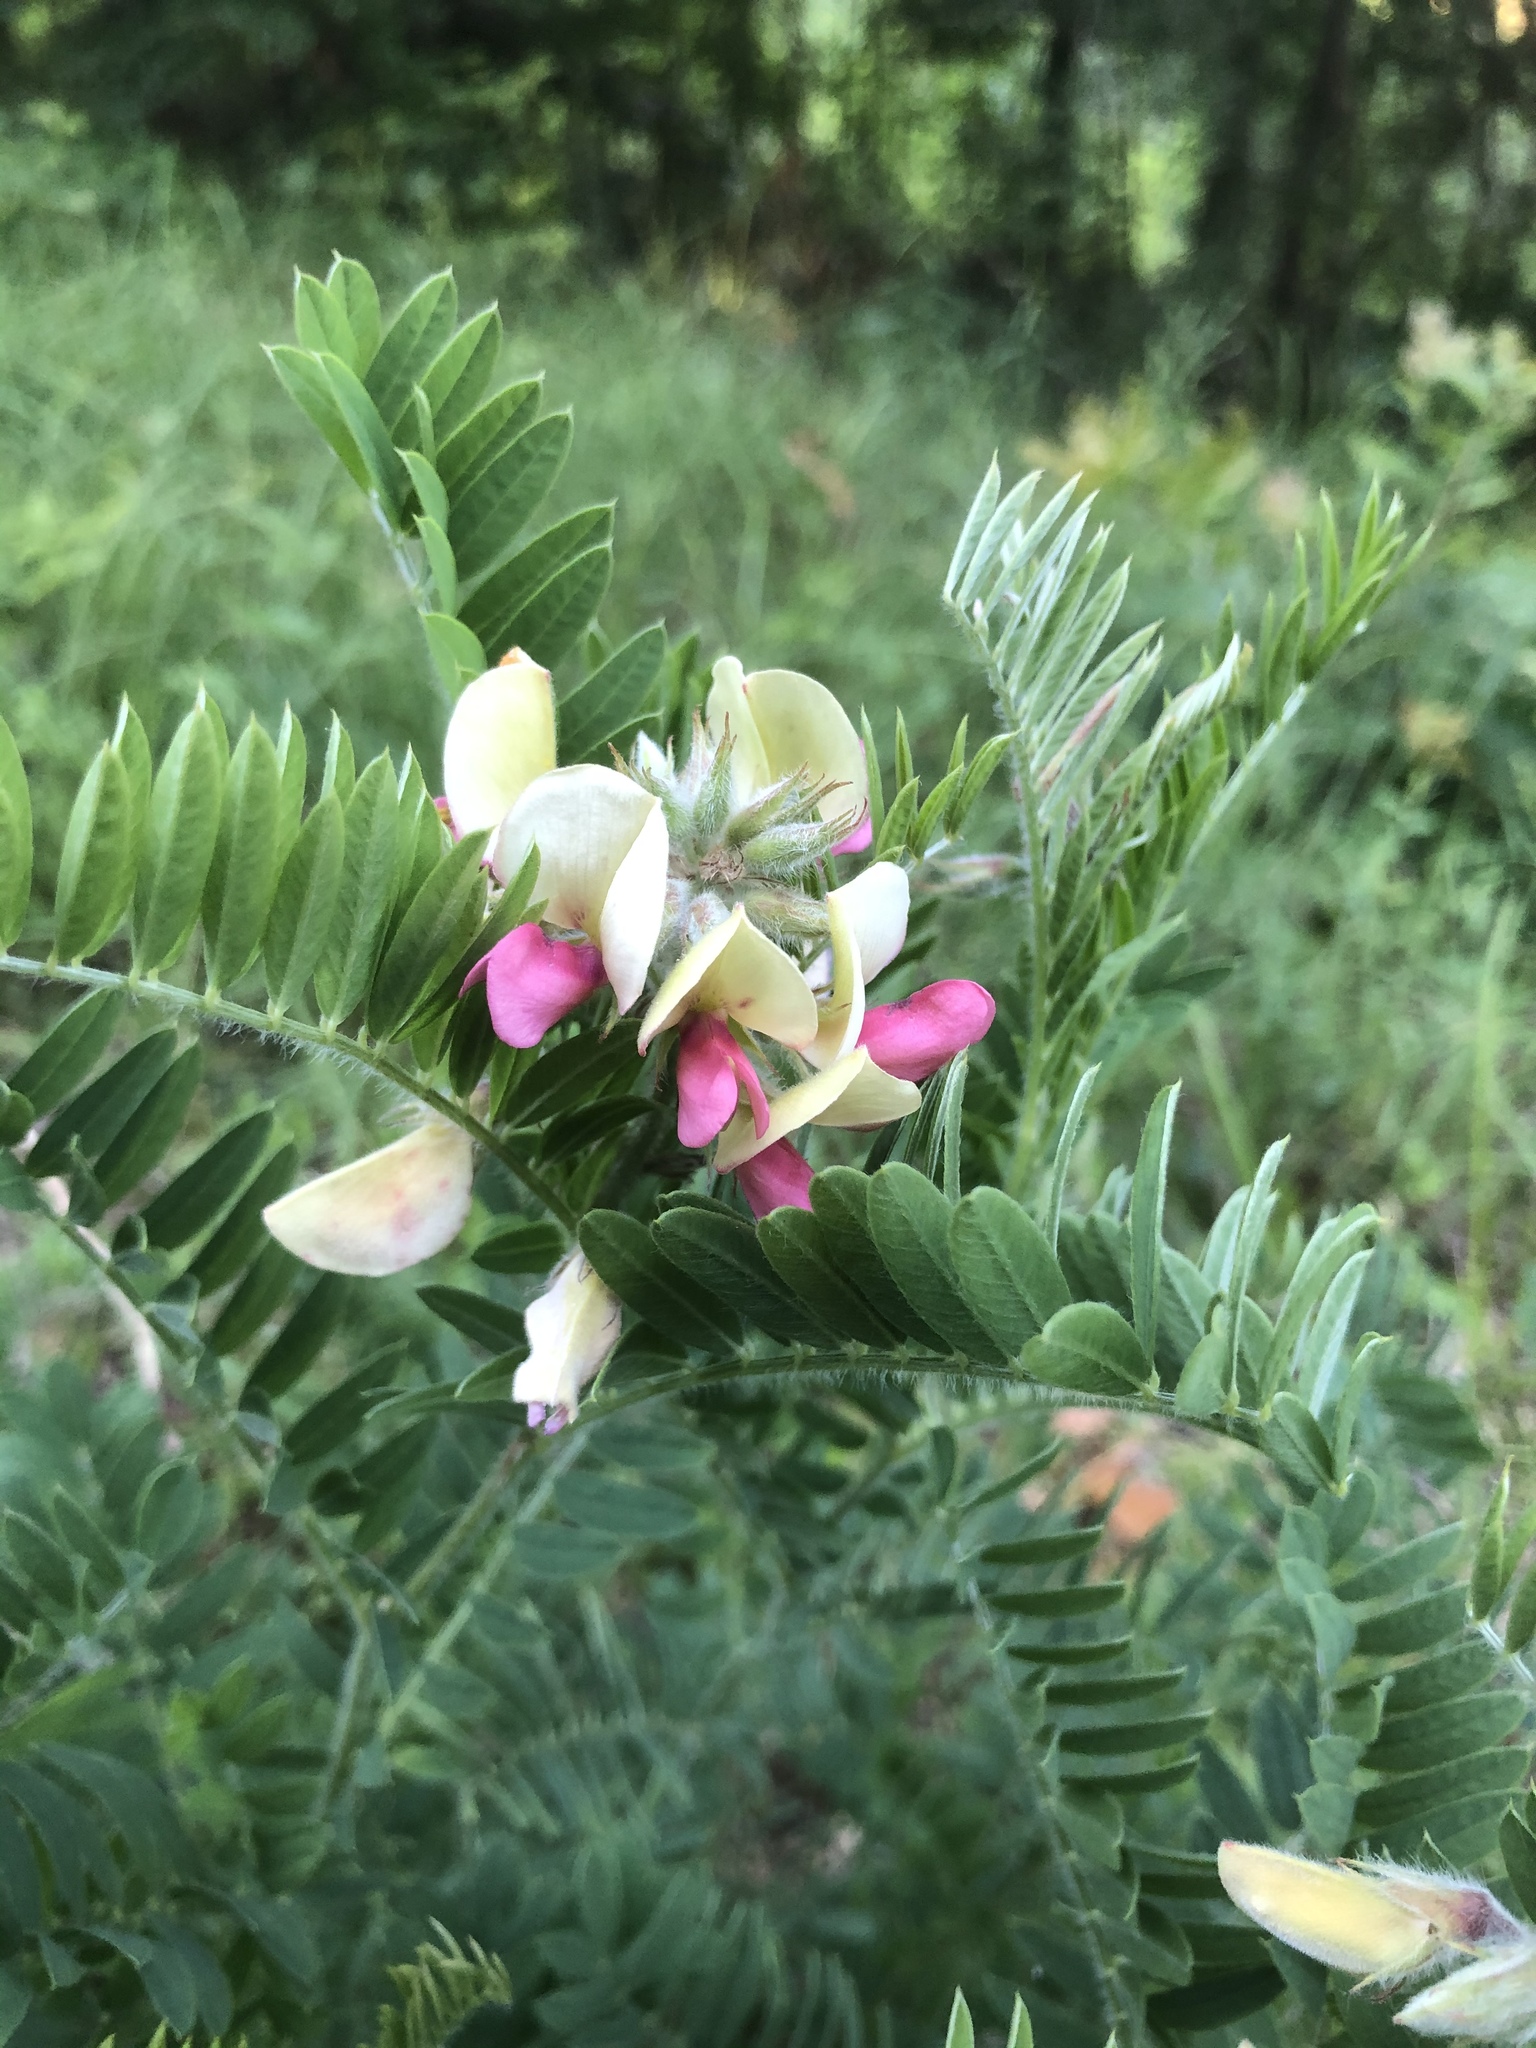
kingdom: Plantae
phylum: Tracheophyta
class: Magnoliopsida
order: Fabales
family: Fabaceae
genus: Tephrosia
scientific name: Tephrosia virginiana
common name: Rabbit-pea
